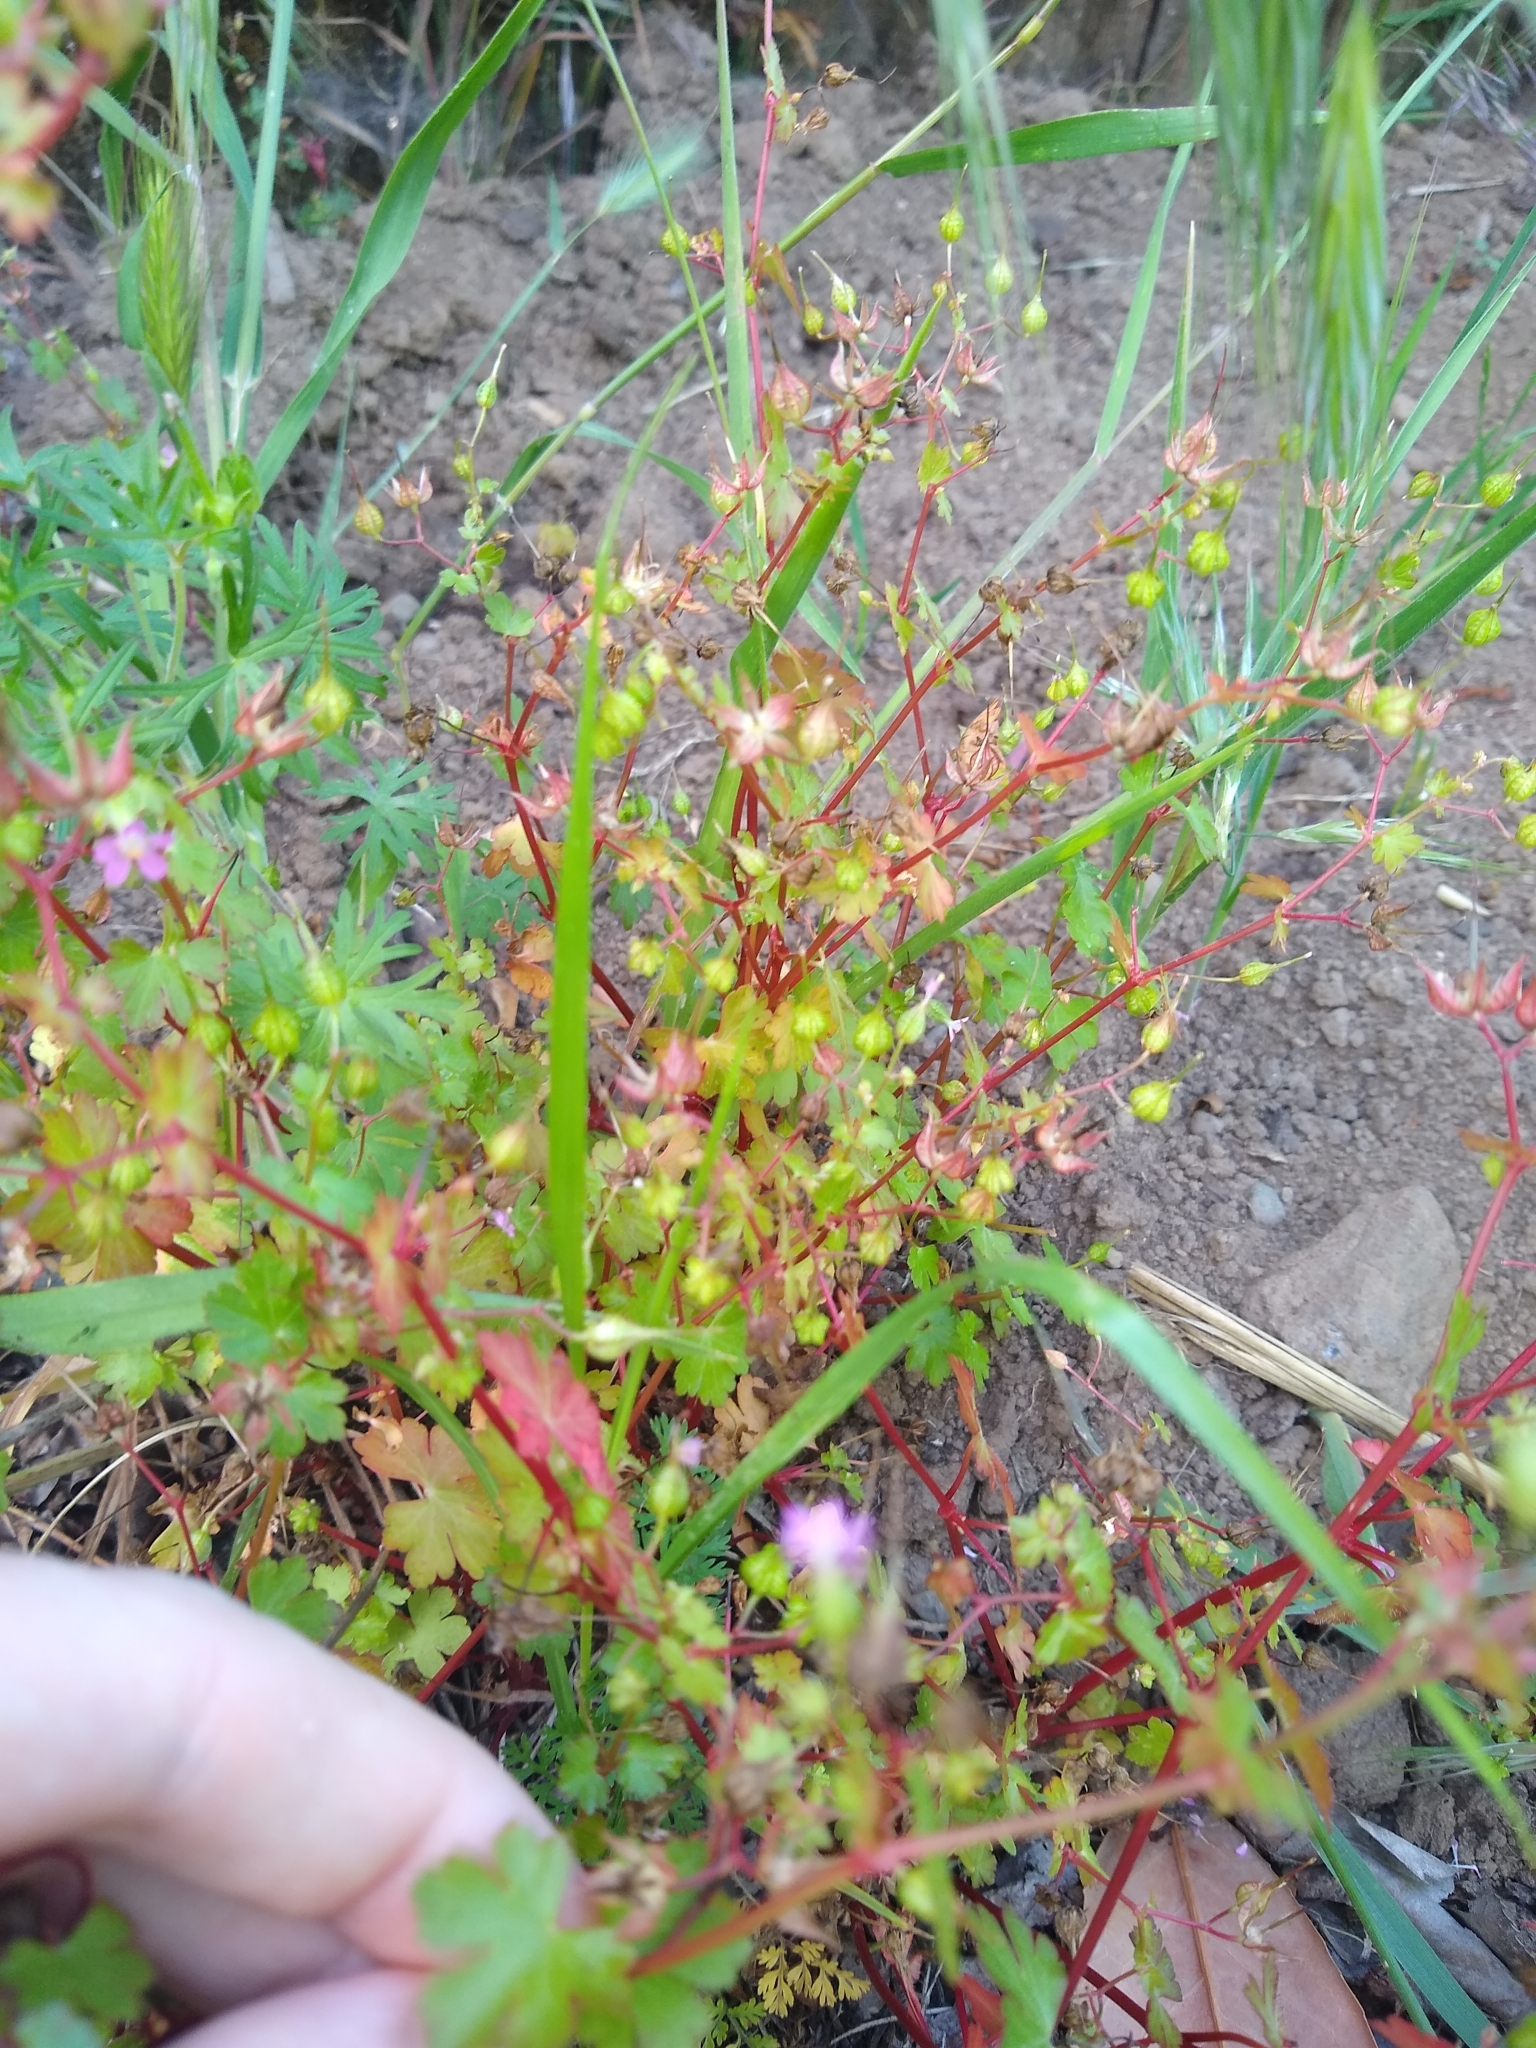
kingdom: Plantae
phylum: Tracheophyta
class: Magnoliopsida
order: Geraniales
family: Geraniaceae
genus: Geranium
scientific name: Geranium lucidum
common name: Shining crane's-bill
